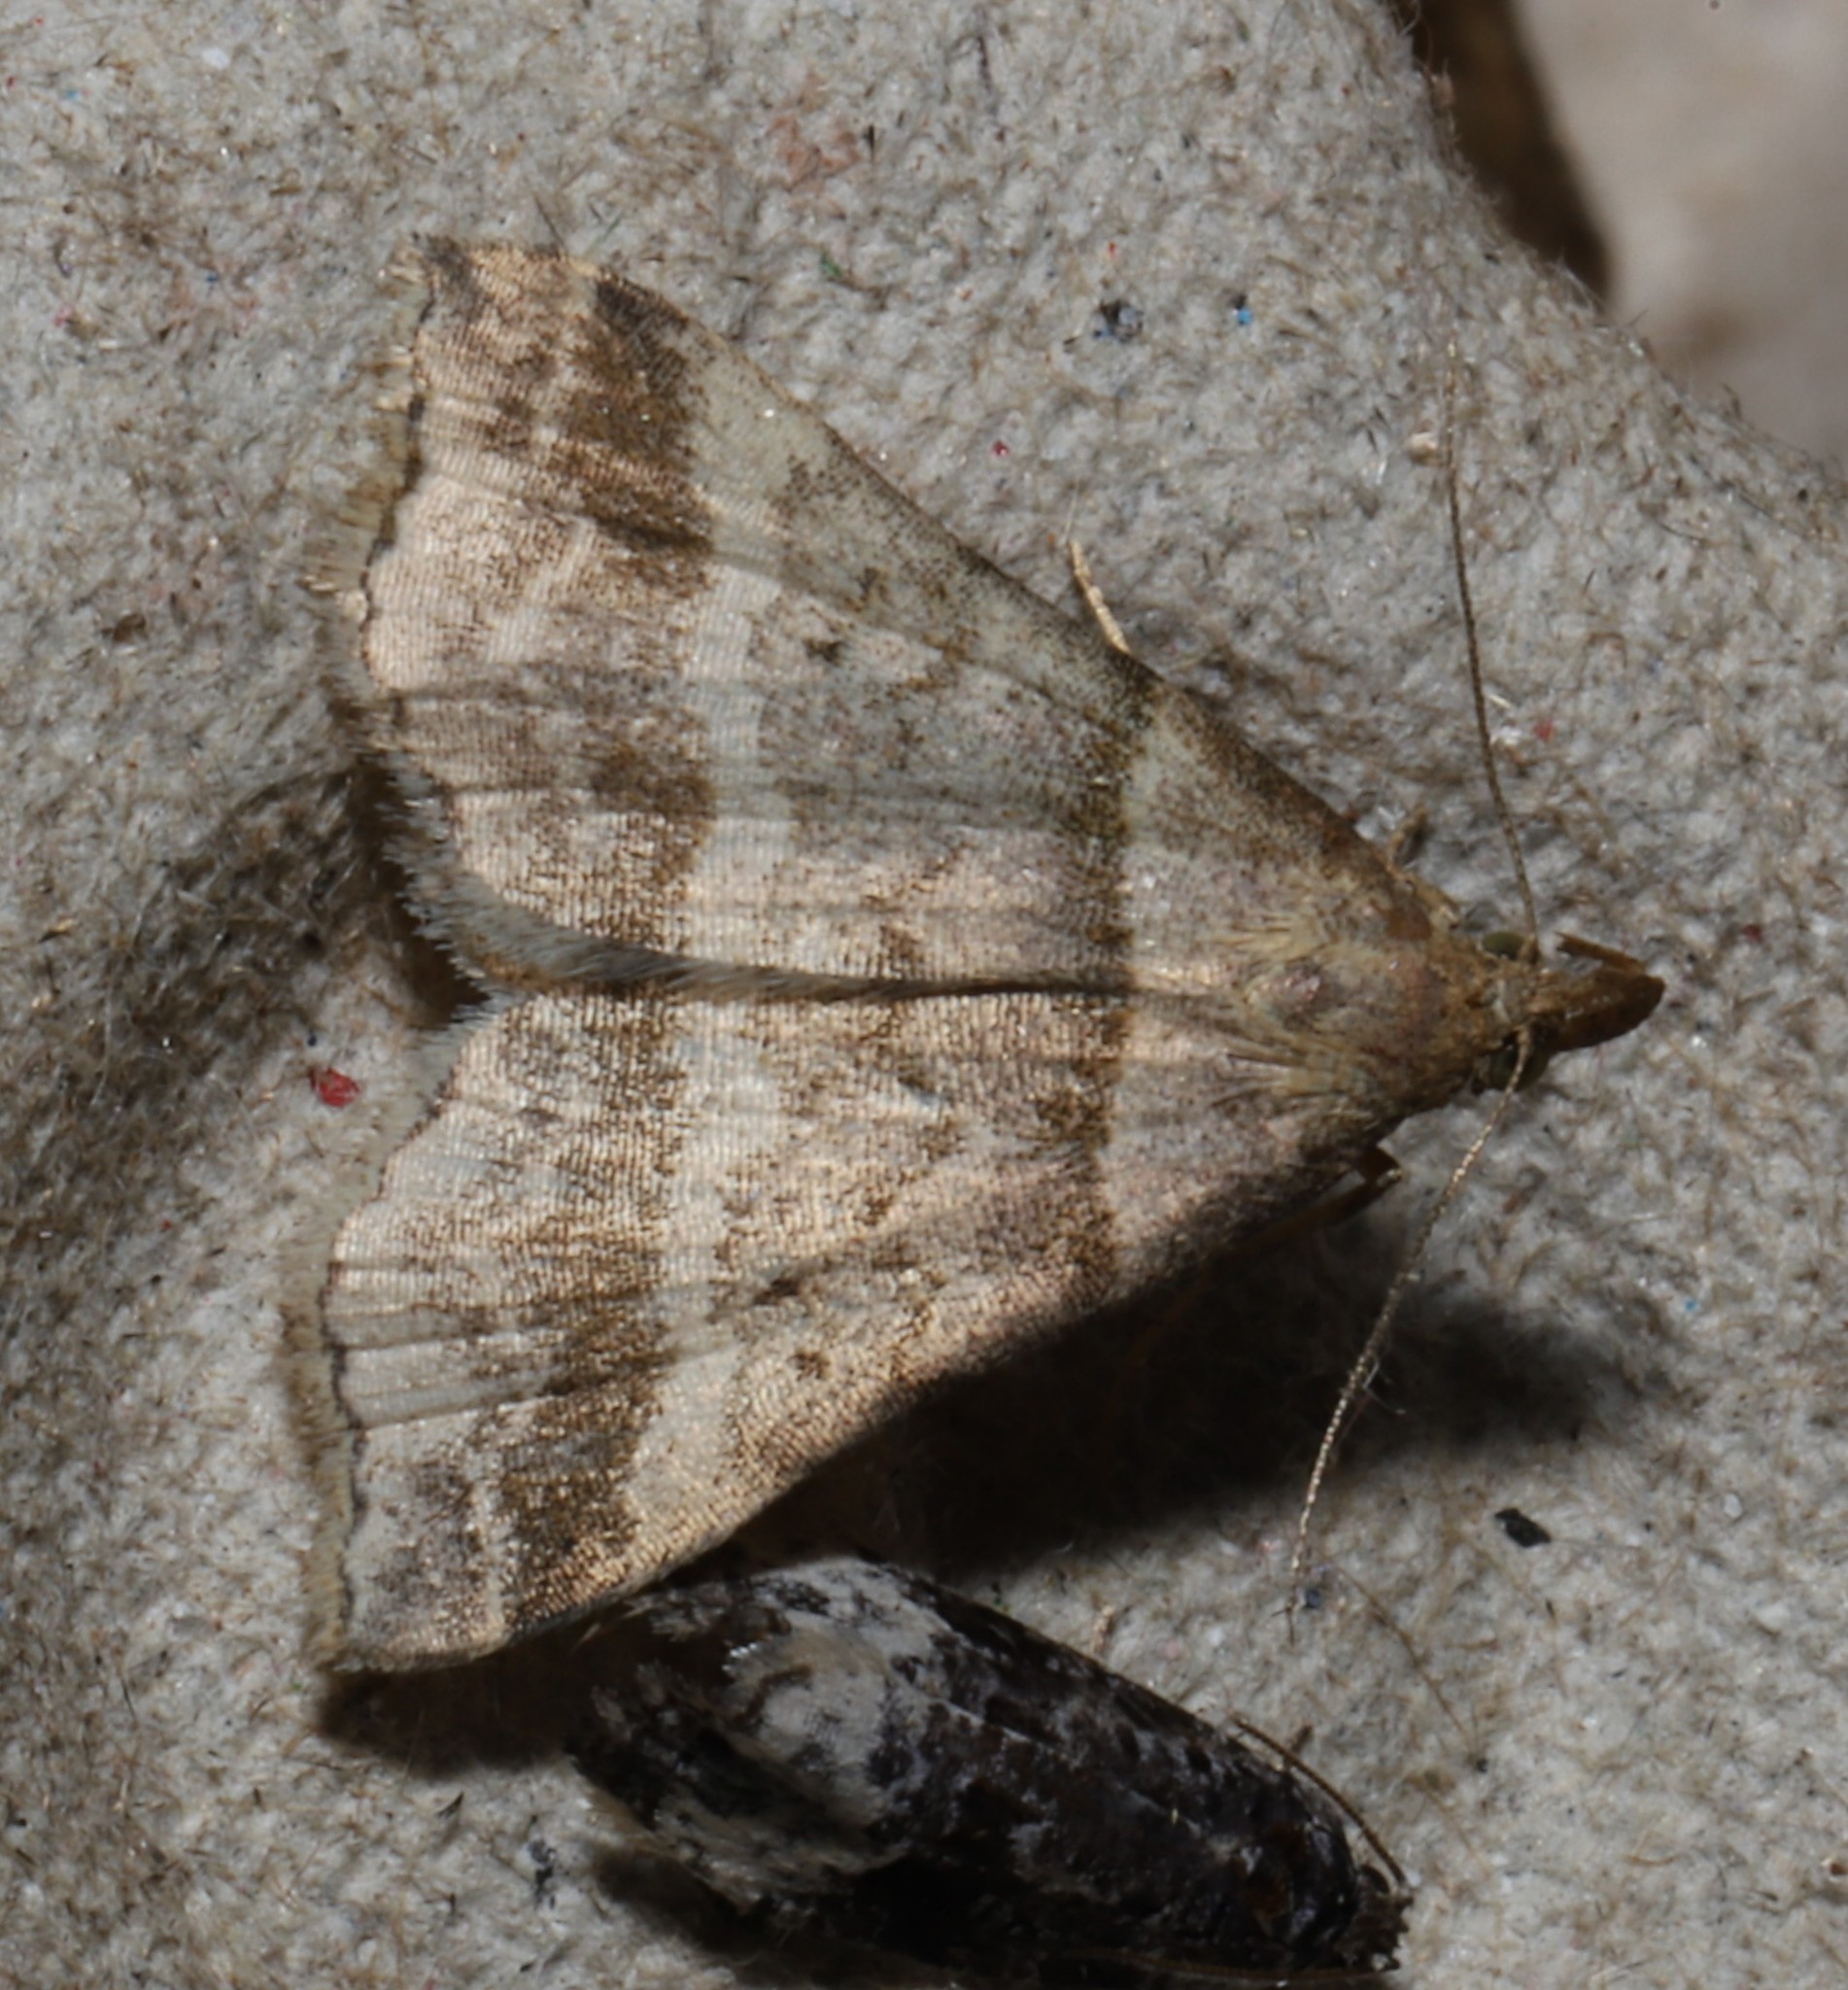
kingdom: Animalia
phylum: Arthropoda
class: Insecta
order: Lepidoptera
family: Erebidae
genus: Phaeolita
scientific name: Phaeolita pyramusalis
